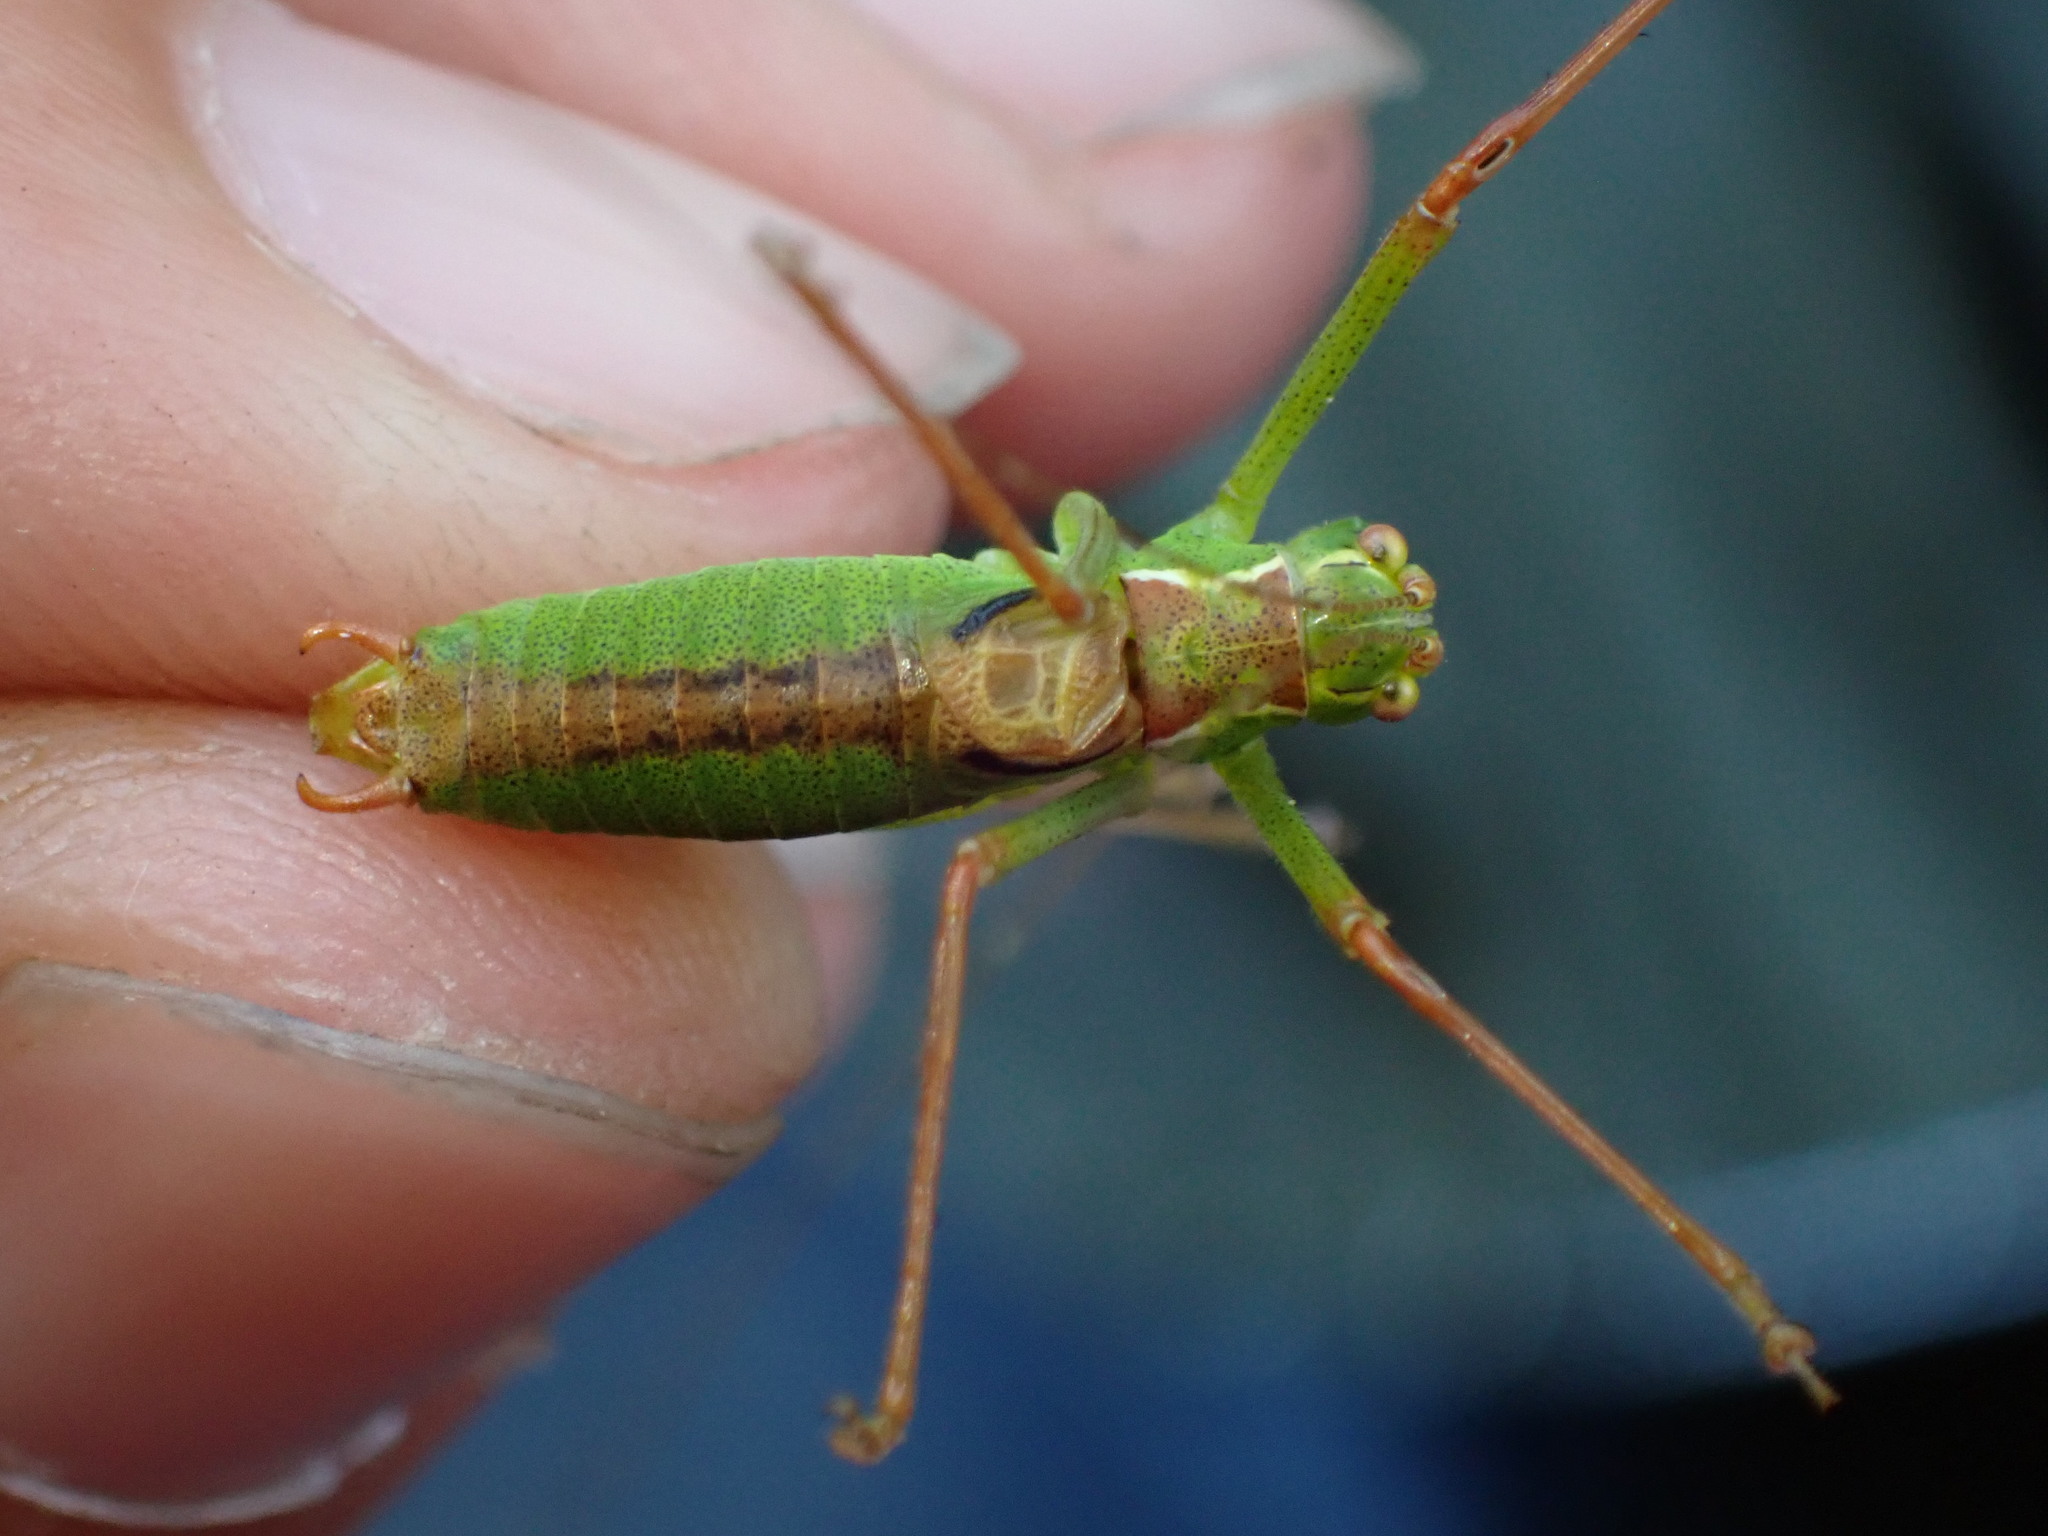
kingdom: Animalia
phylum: Arthropoda
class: Insecta
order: Orthoptera
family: Tettigoniidae
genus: Leptophyes
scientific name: Leptophyes punctatissima
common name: Speckled bush-cricket
